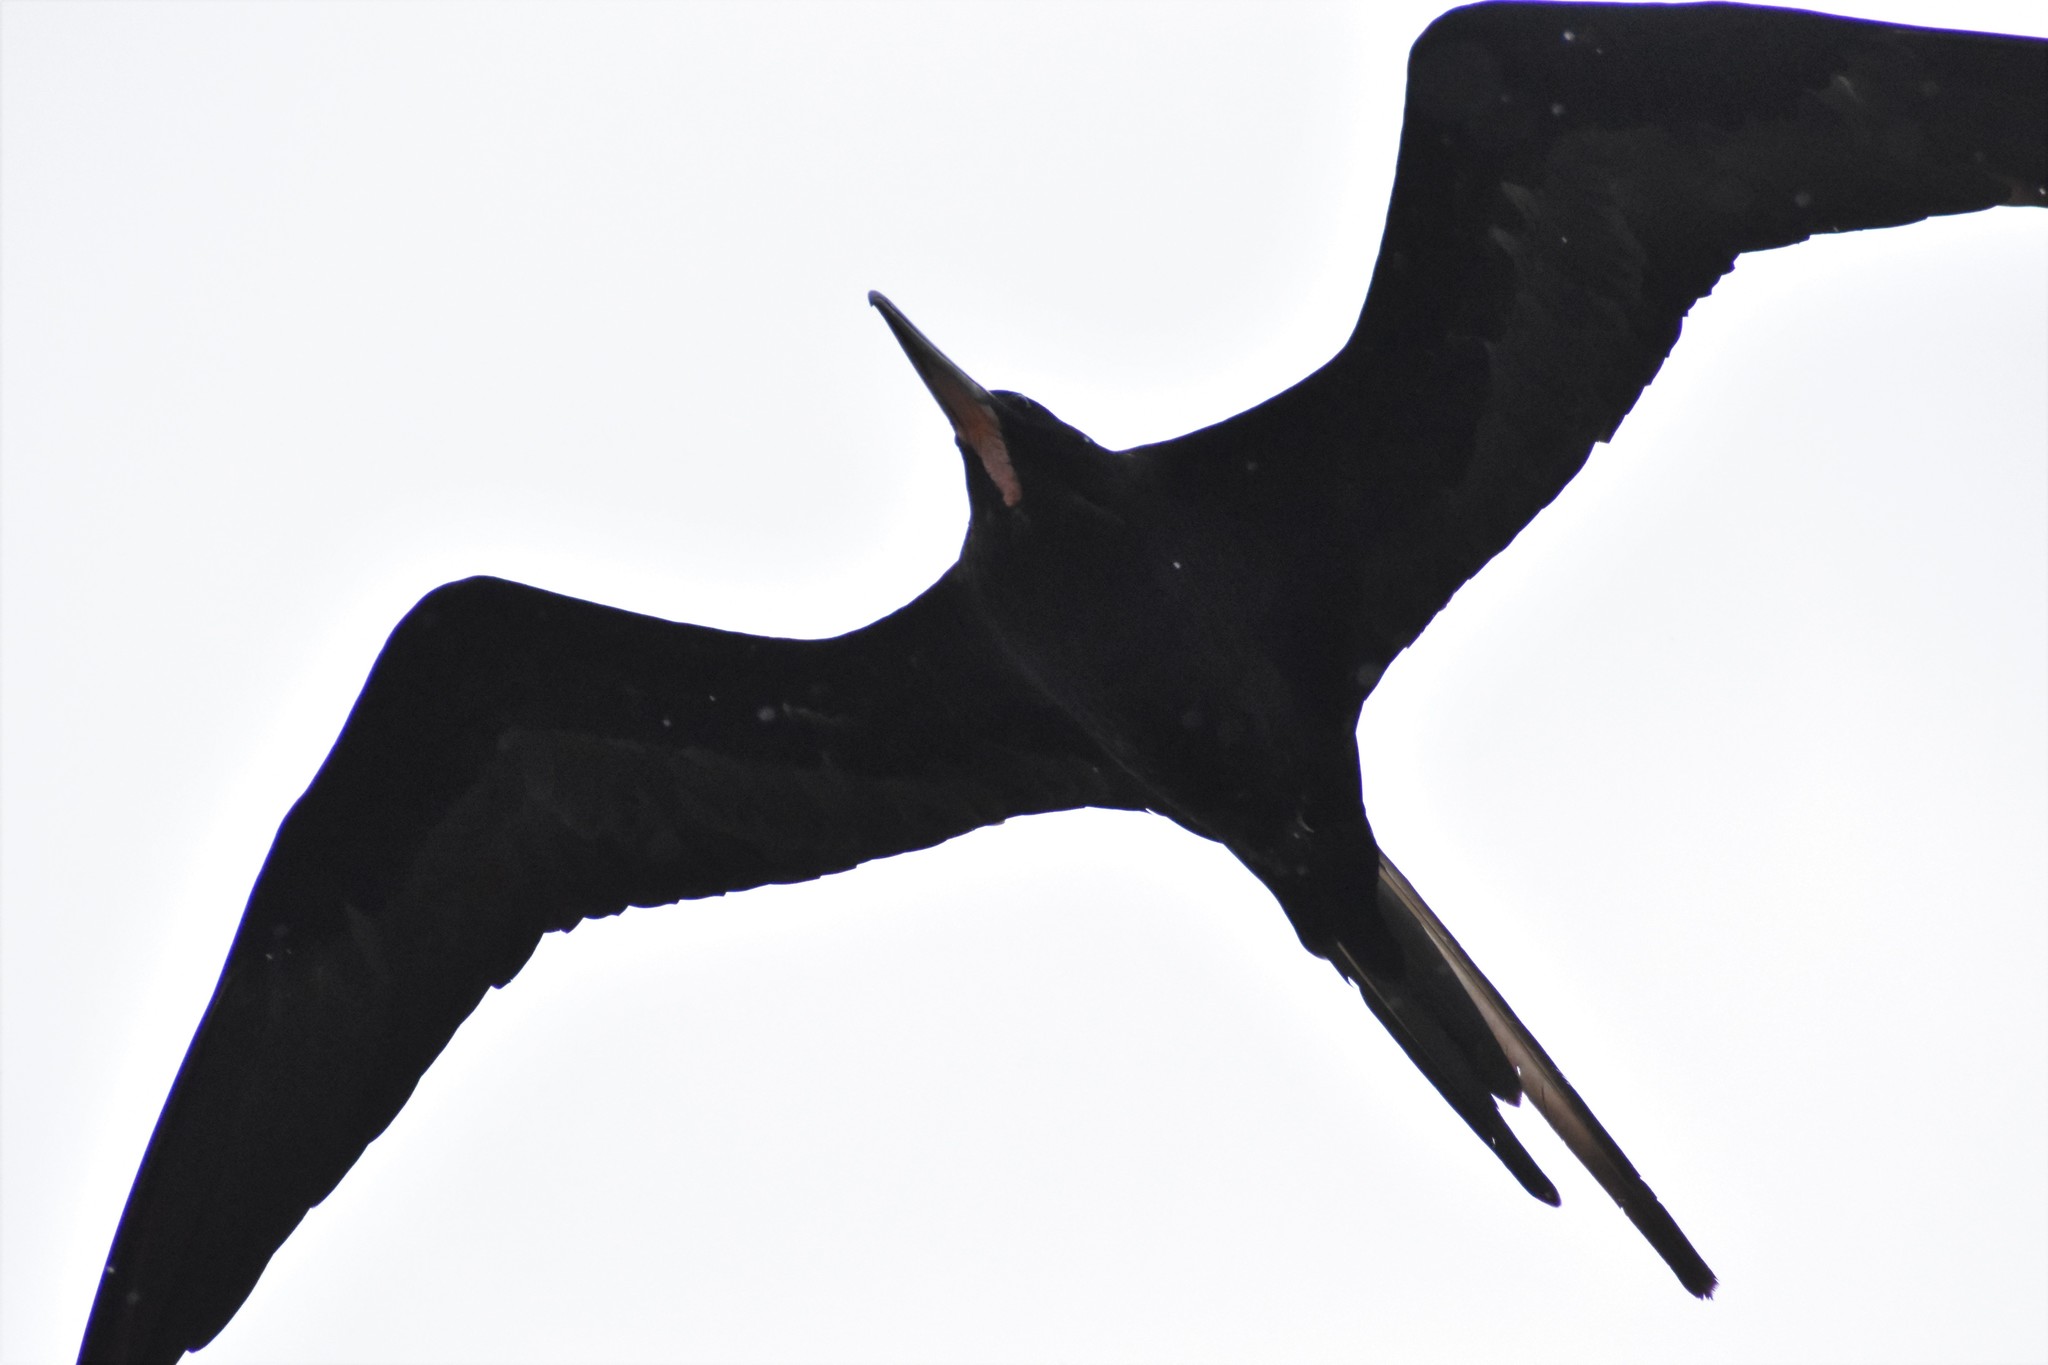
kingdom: Animalia
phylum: Chordata
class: Aves
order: Suliformes
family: Fregatidae
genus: Fregata
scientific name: Fregata magnificens
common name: Magnificent frigatebird
